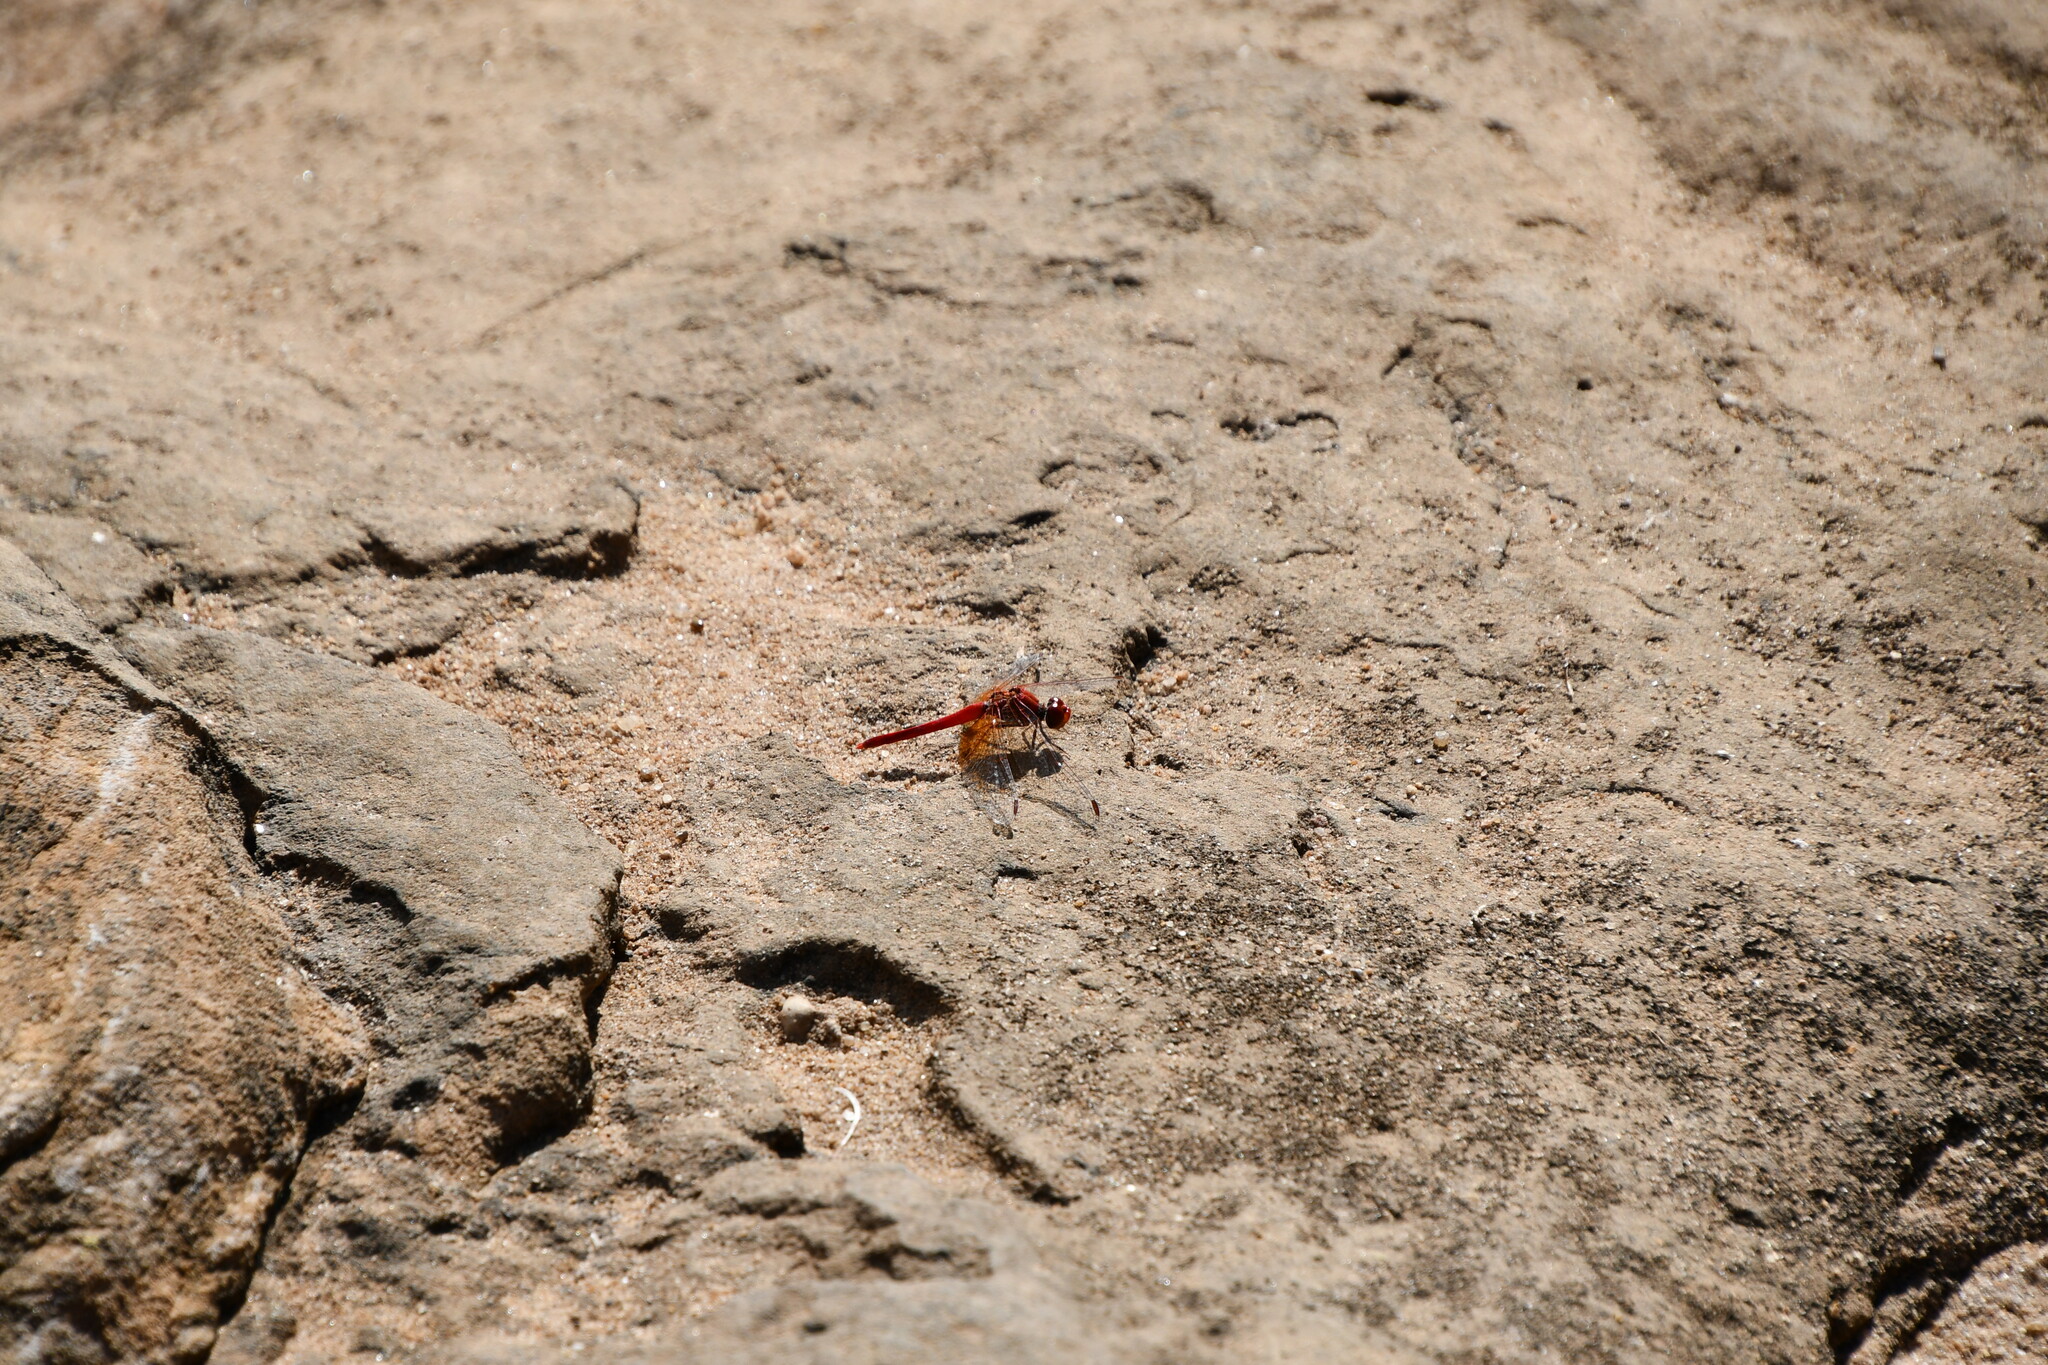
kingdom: Animalia
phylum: Arthropoda
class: Insecta
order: Odonata
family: Libellulidae
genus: Diplacodes
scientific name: Diplacodes haematodes
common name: Scarlet percher
